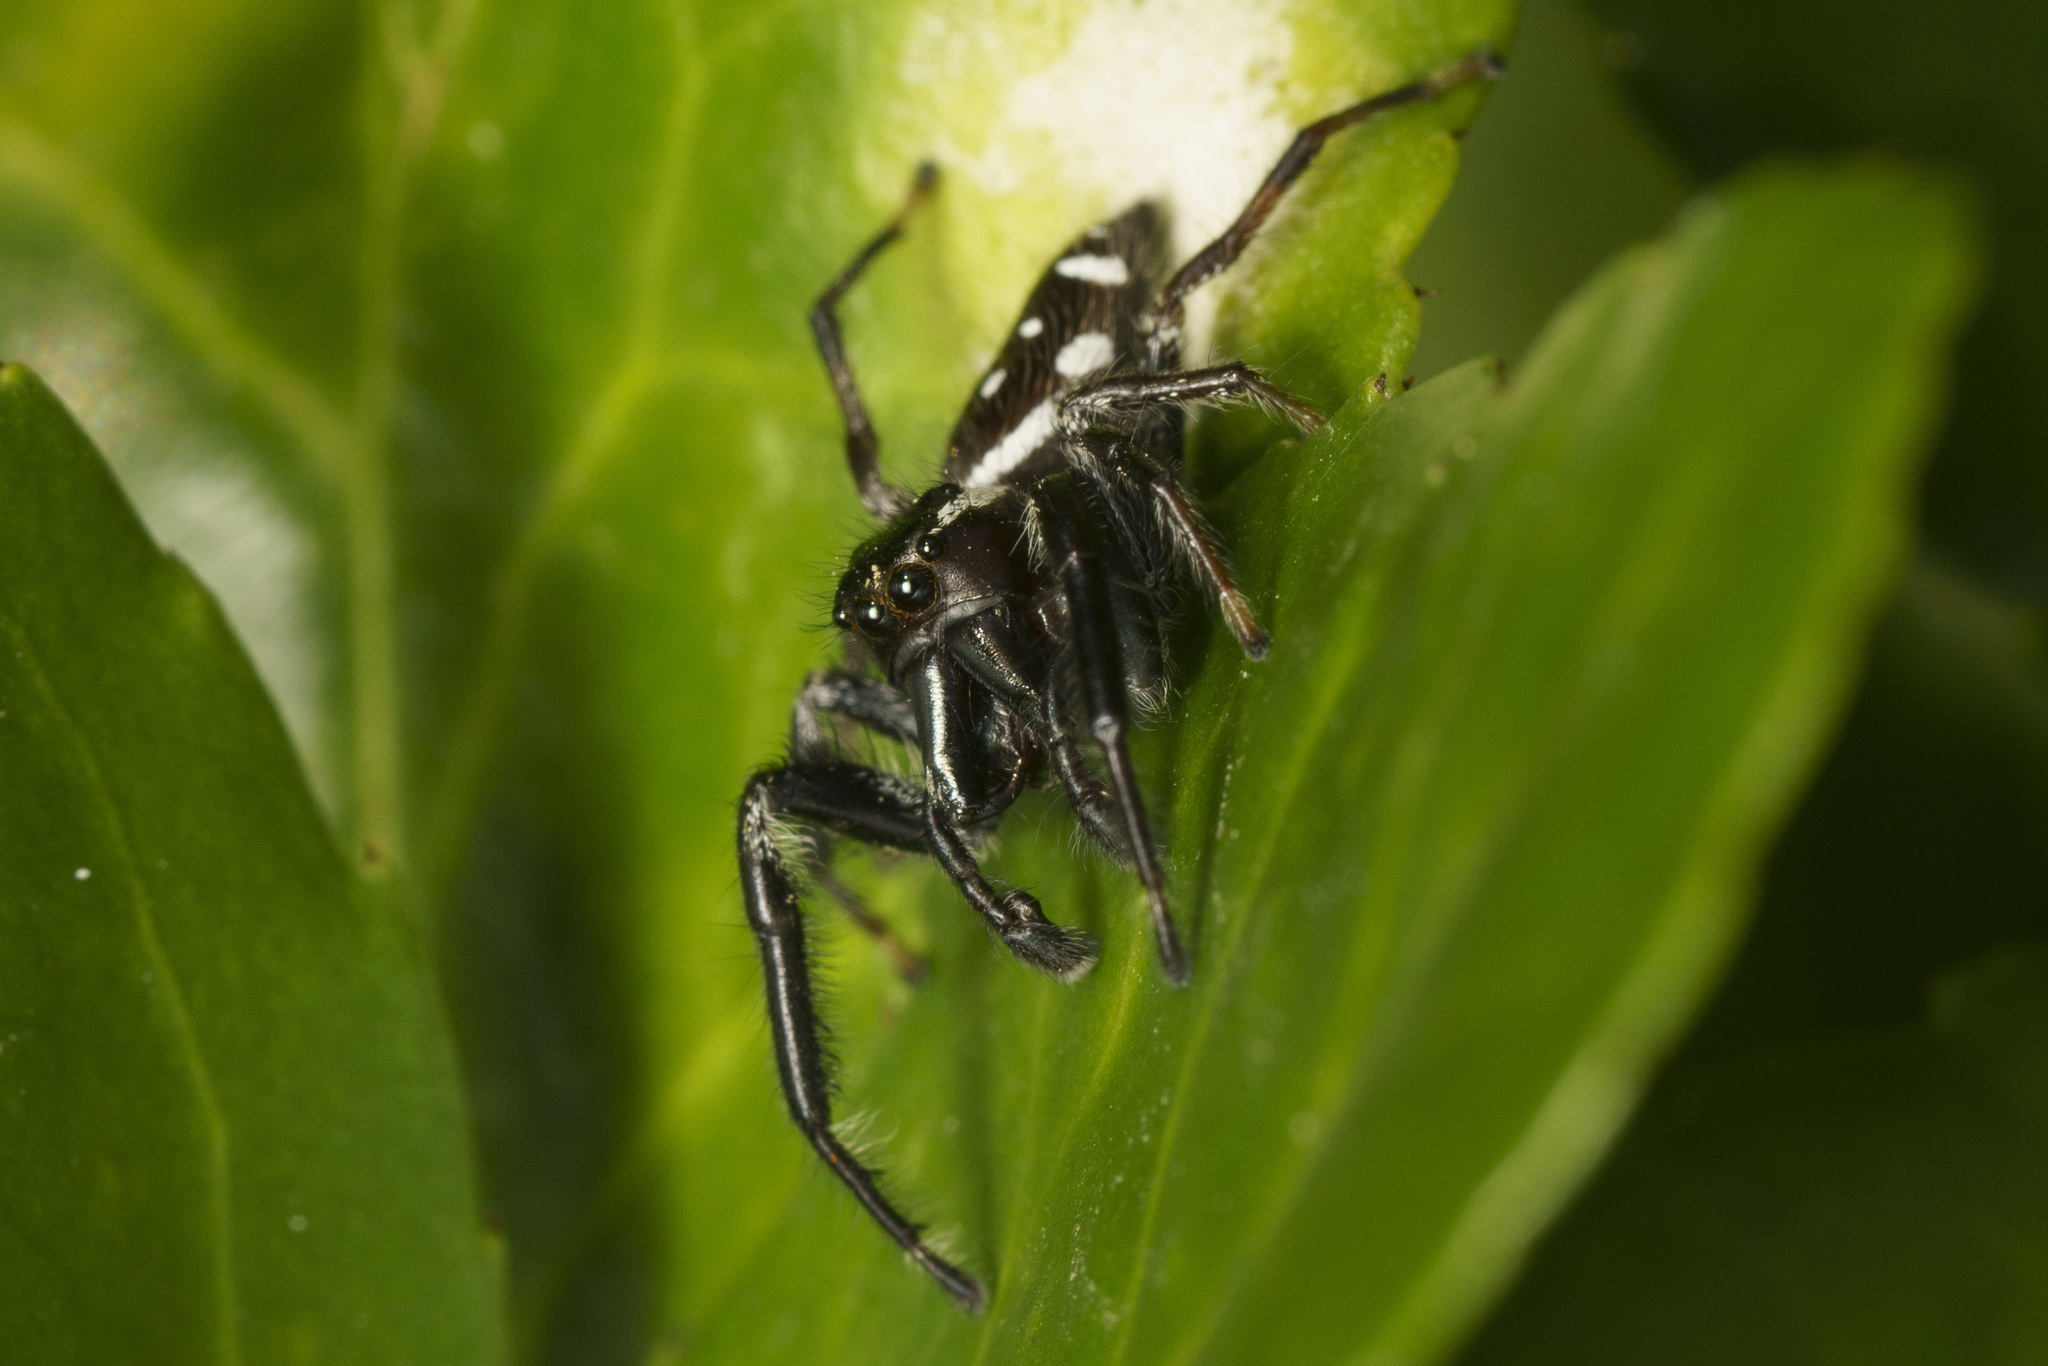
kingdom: Animalia
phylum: Arthropoda
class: Arachnida
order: Araneae
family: Salticidae
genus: Paraphidippus
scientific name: Paraphidippus aurantius
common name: Jumping spiders
